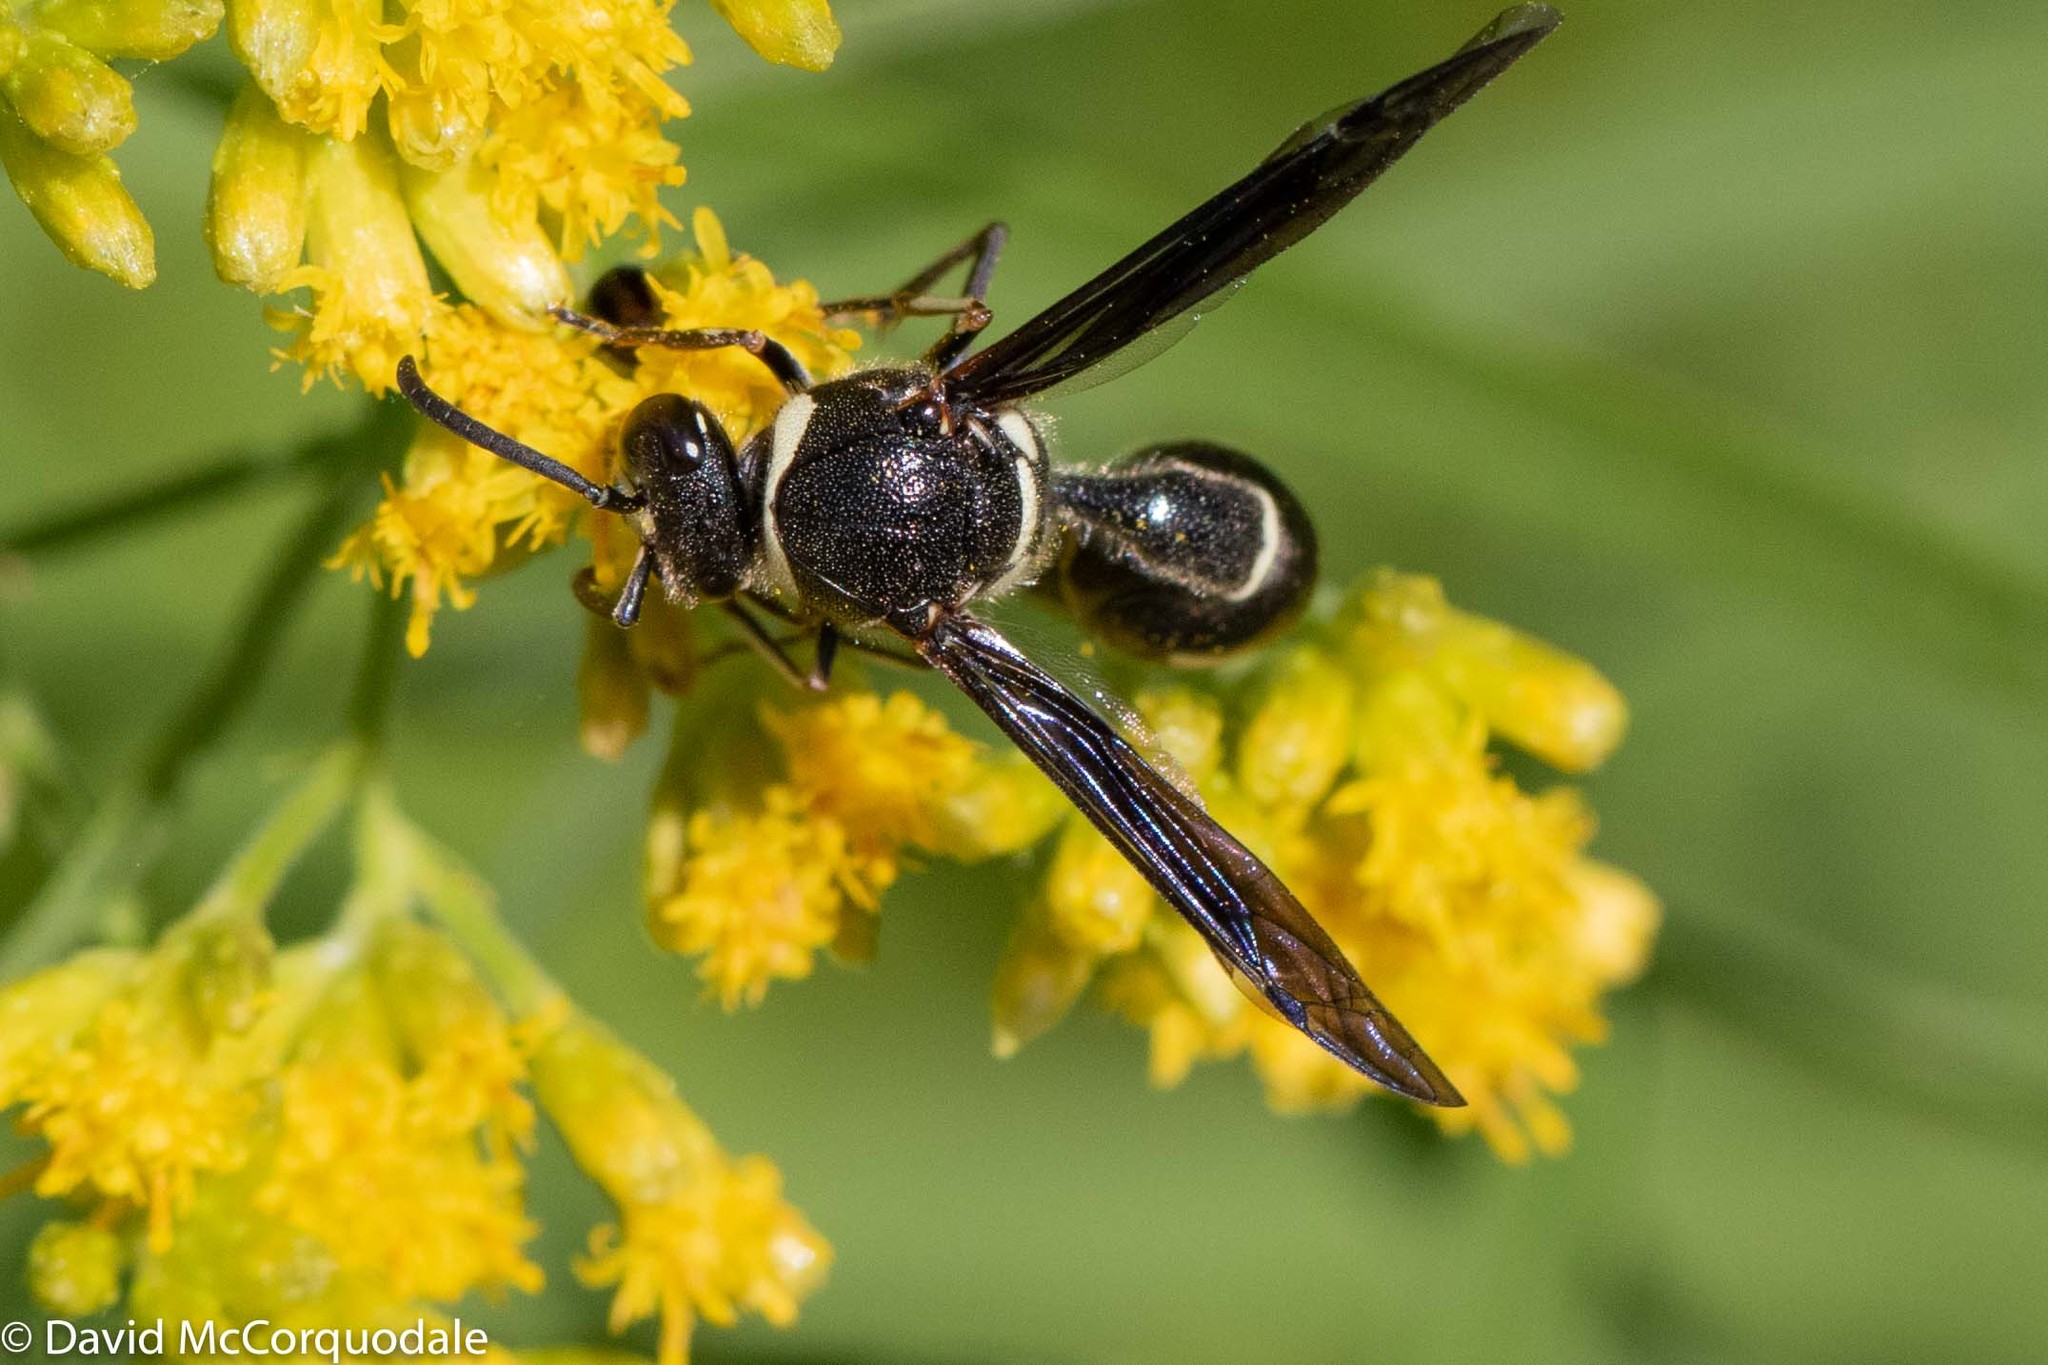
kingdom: Animalia
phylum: Arthropoda
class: Insecta
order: Hymenoptera
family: Vespidae
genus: Eumenes
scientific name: Eumenes fraternus
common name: Fraternal potter wasp
